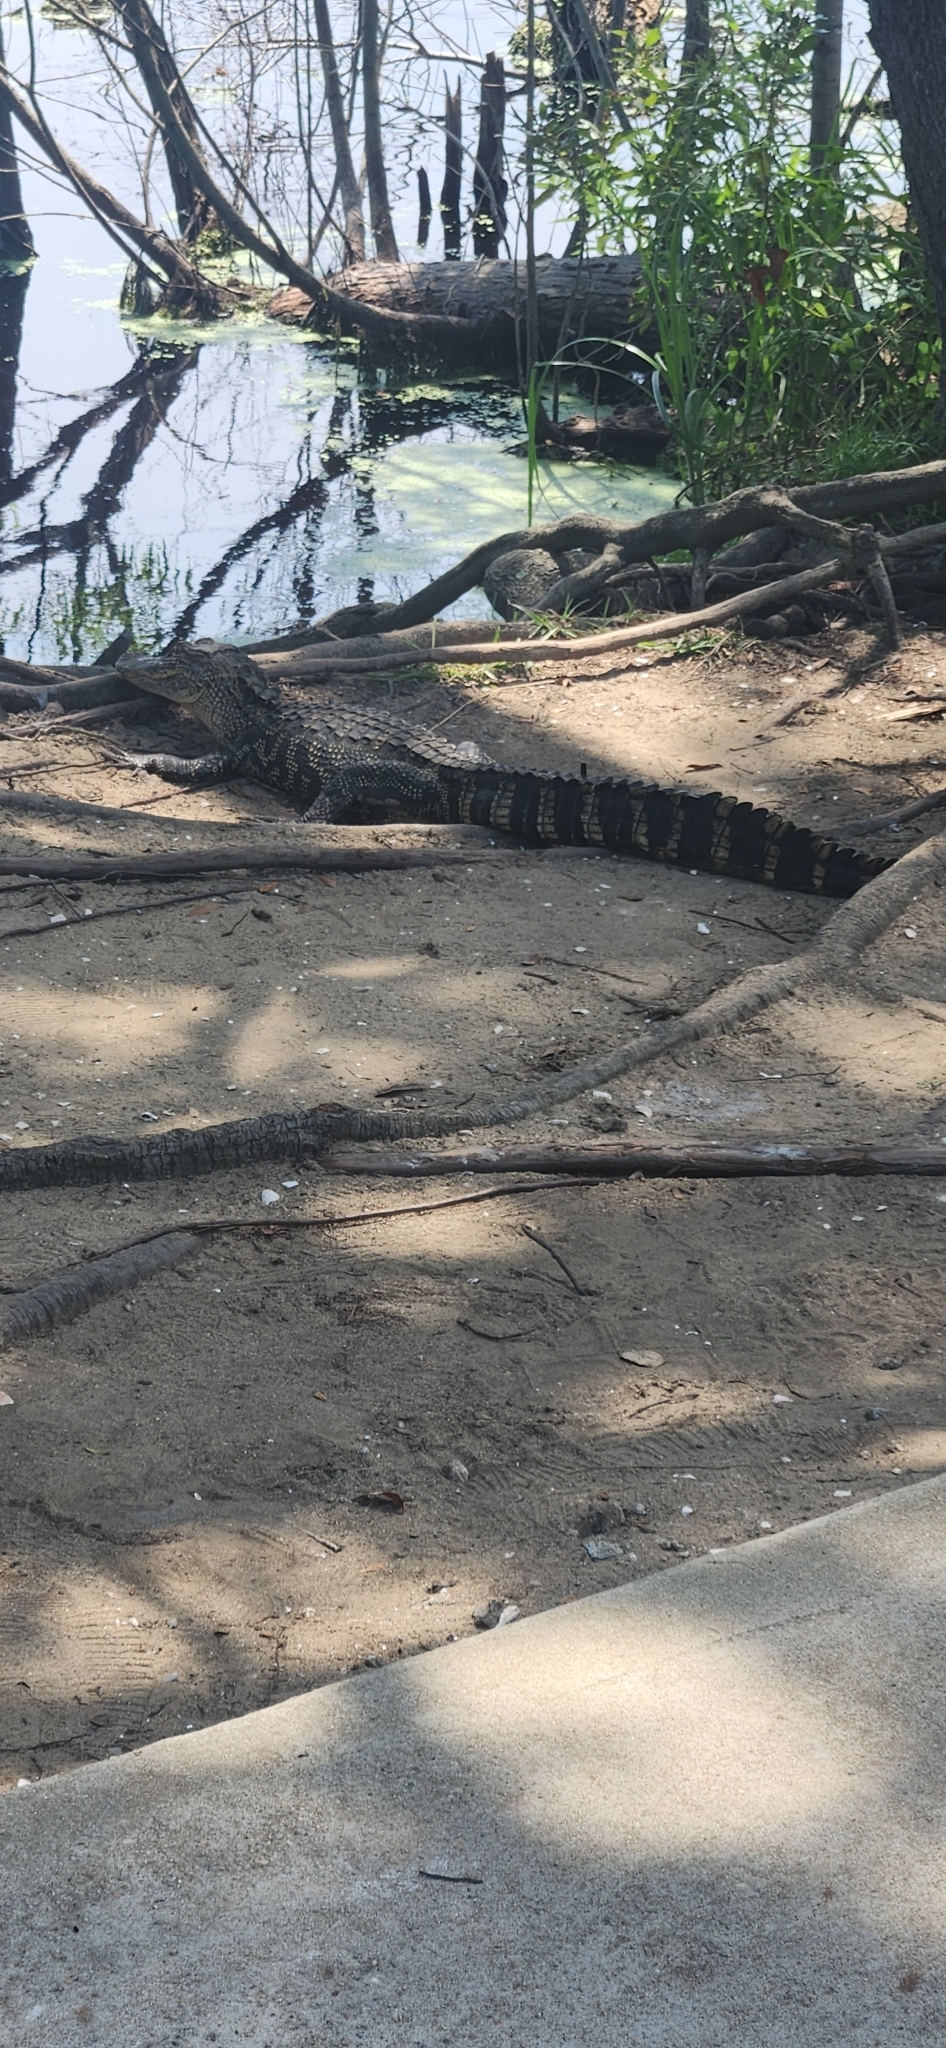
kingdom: Animalia
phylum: Chordata
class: Crocodylia
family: Alligatoridae
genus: Alligator
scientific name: Alligator mississippiensis
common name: American alligator
